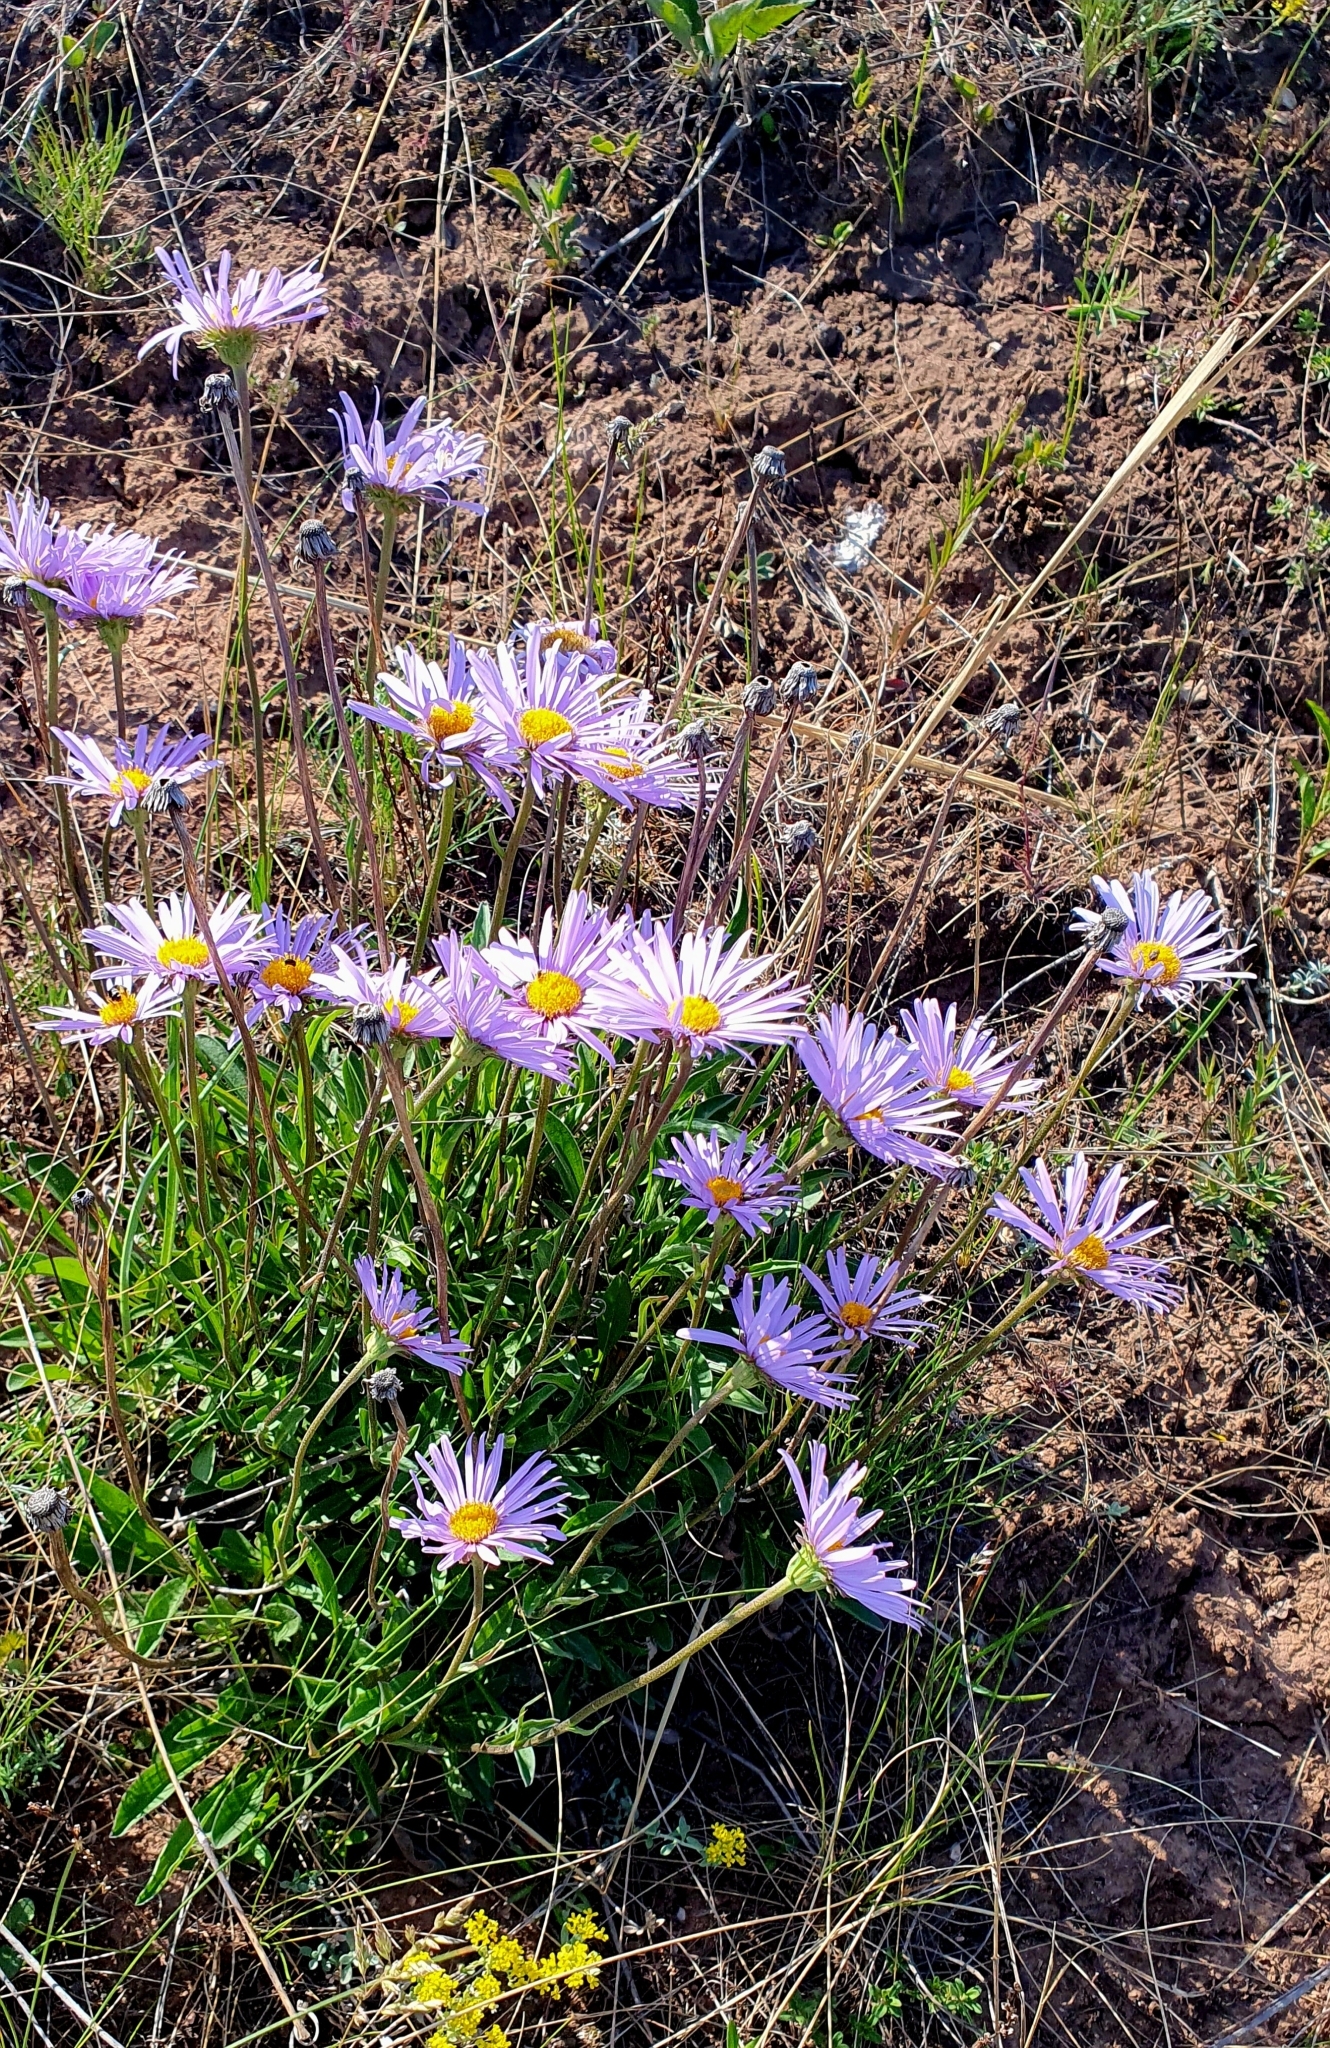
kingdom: Plantae
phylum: Tracheophyta
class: Magnoliopsida
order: Asterales
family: Asteraceae
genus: Aster
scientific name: Aster alpinus
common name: Alpine aster
